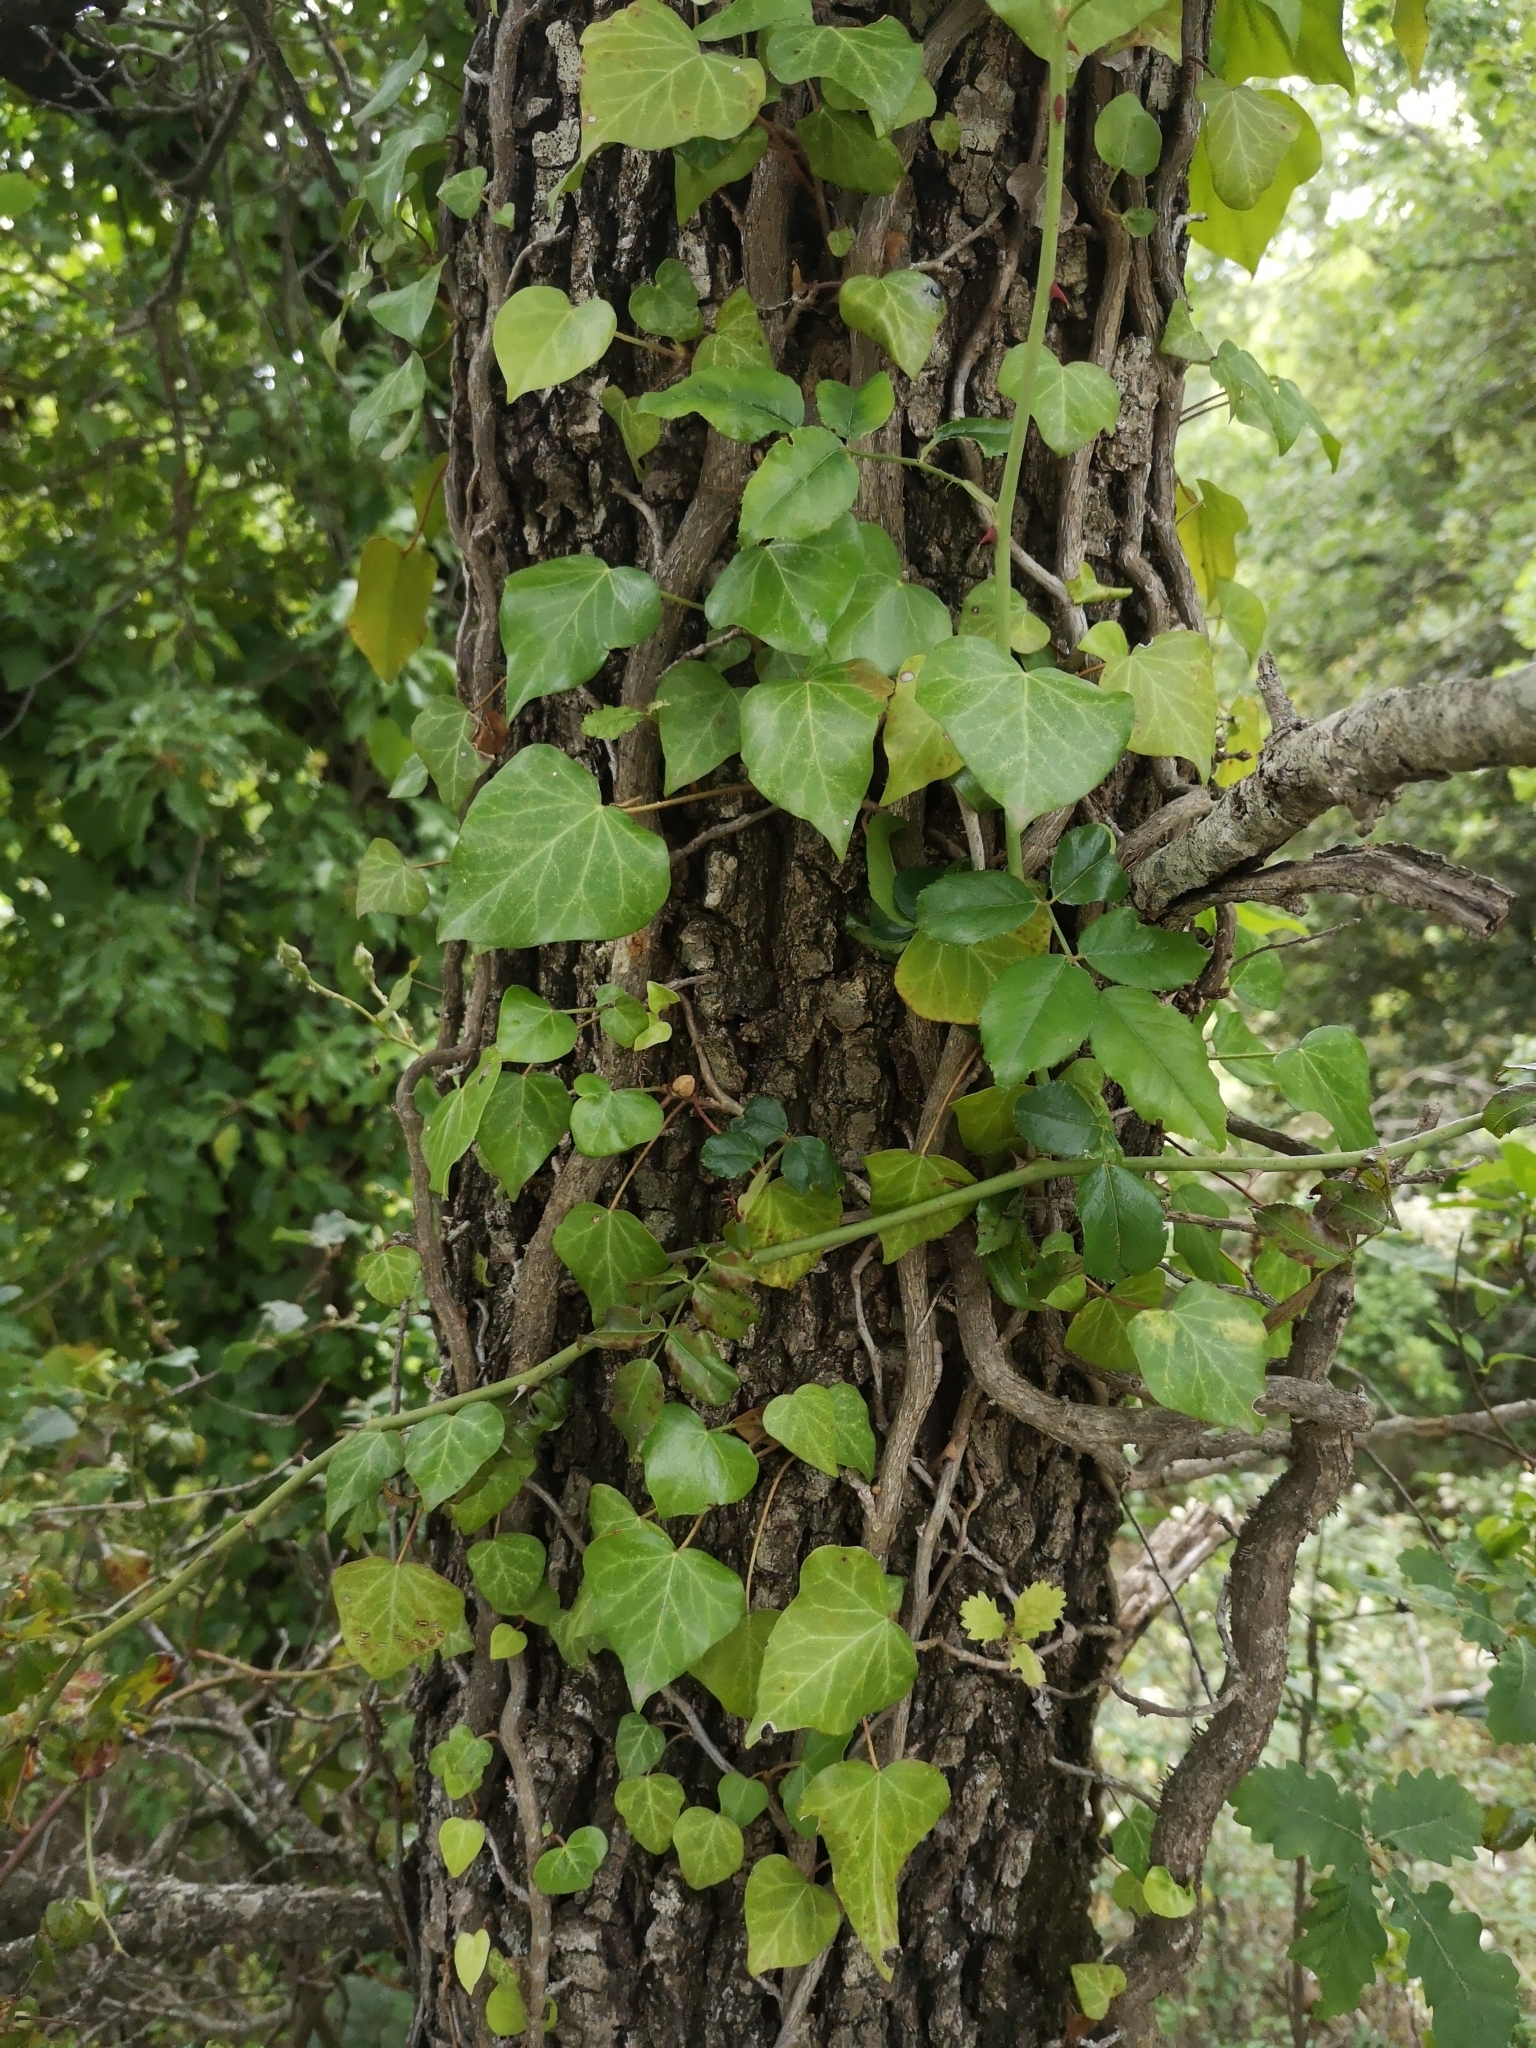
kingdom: Plantae
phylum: Tracheophyta
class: Magnoliopsida
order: Apiales
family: Araliaceae
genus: Hedera
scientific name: Hedera helix
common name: Ivy
